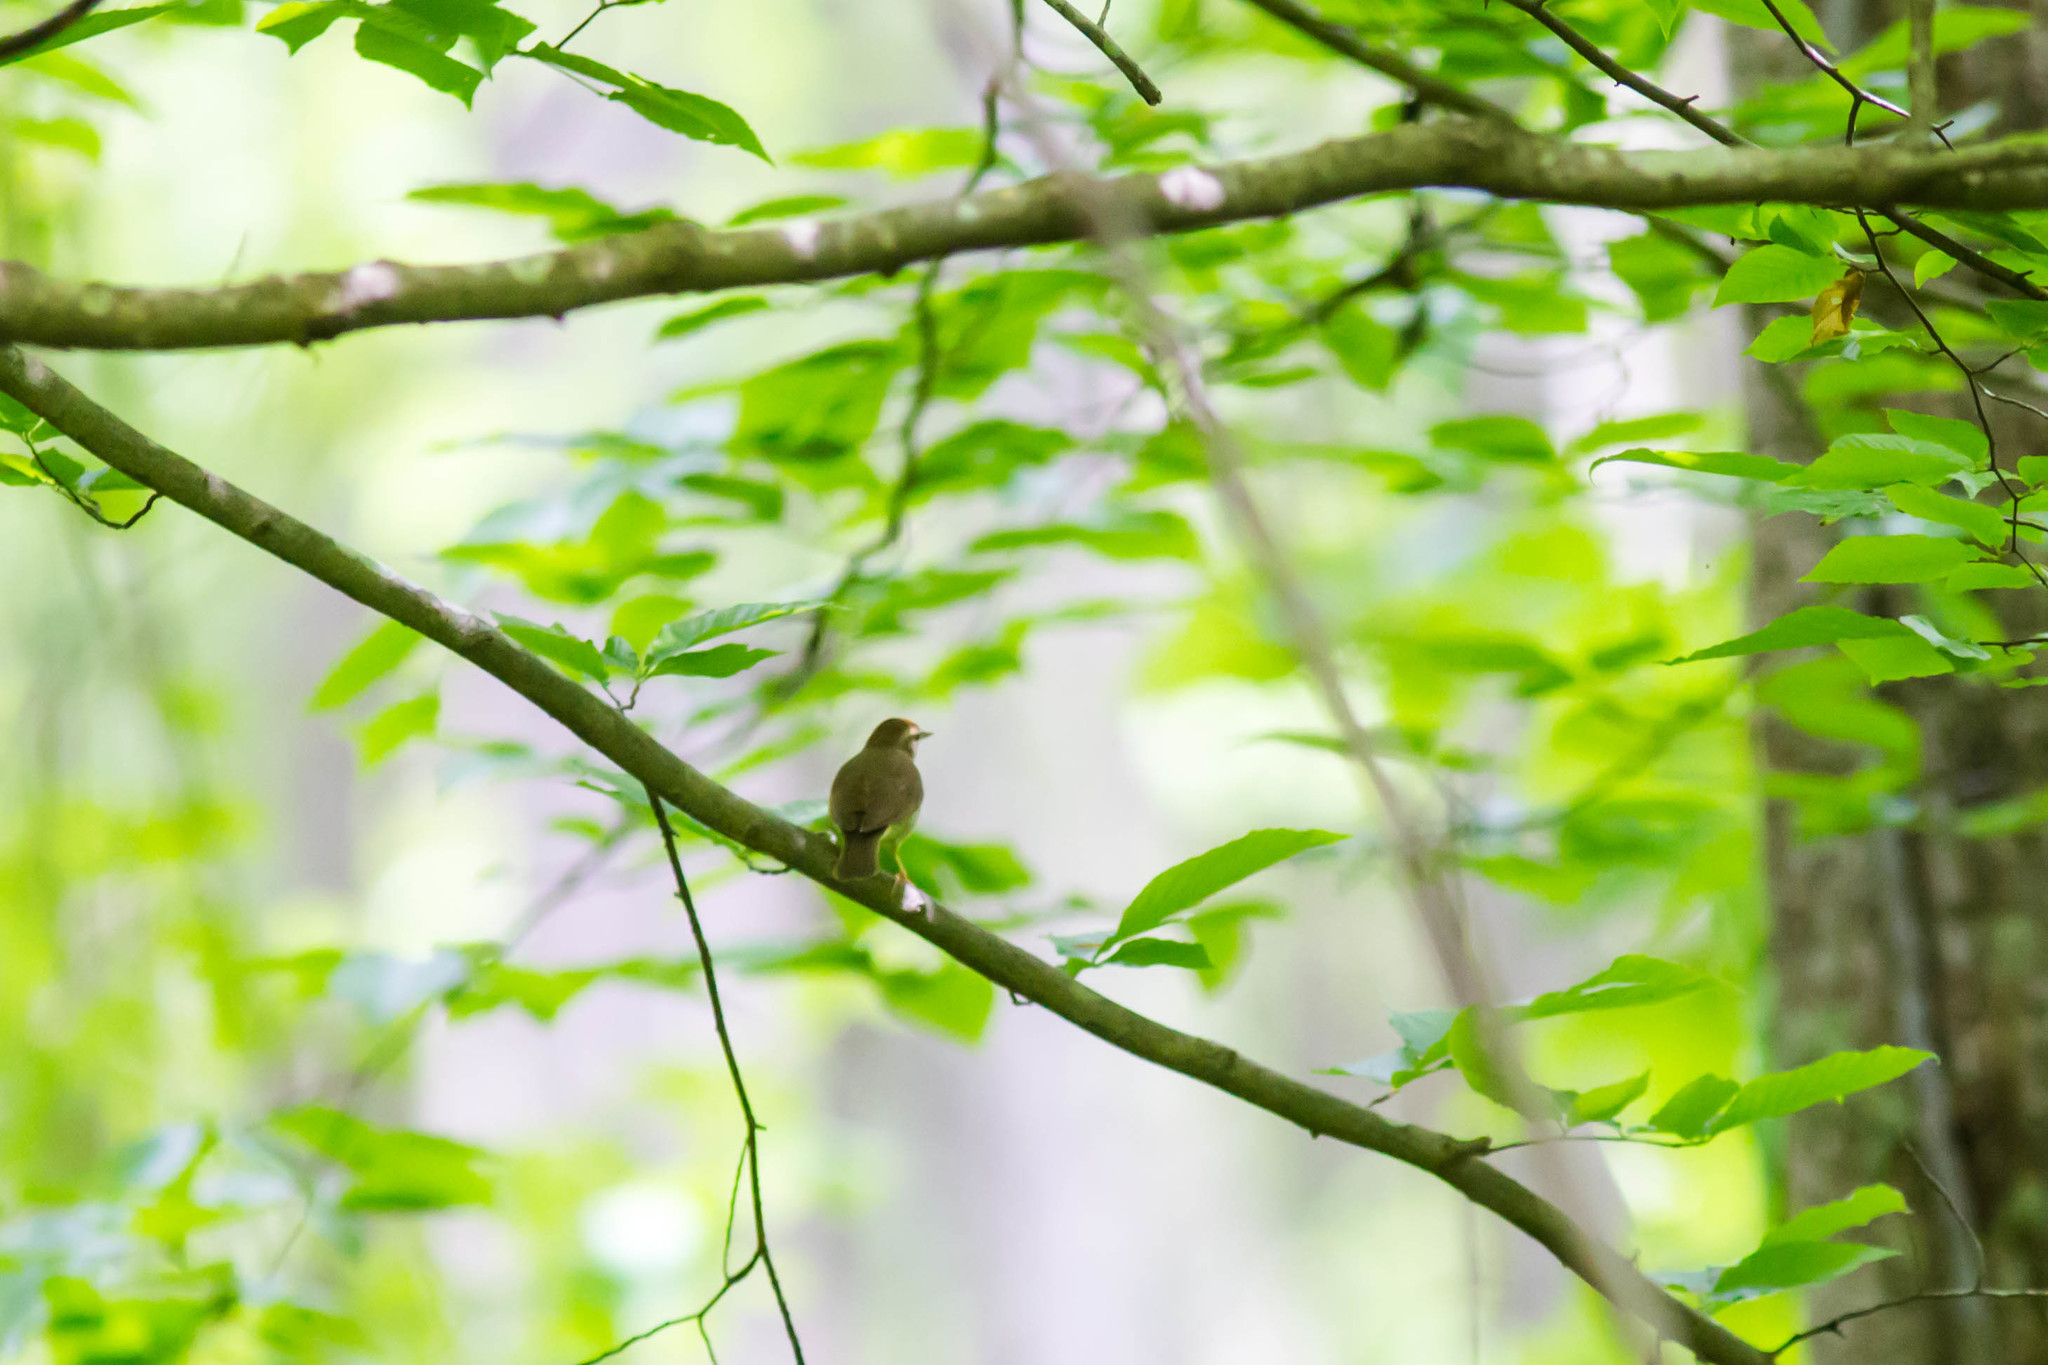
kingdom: Animalia
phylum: Chordata
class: Aves
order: Passeriformes
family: Parulidae
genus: Limnothlypis
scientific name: Limnothlypis swainsonii
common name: Swainson's warbler
